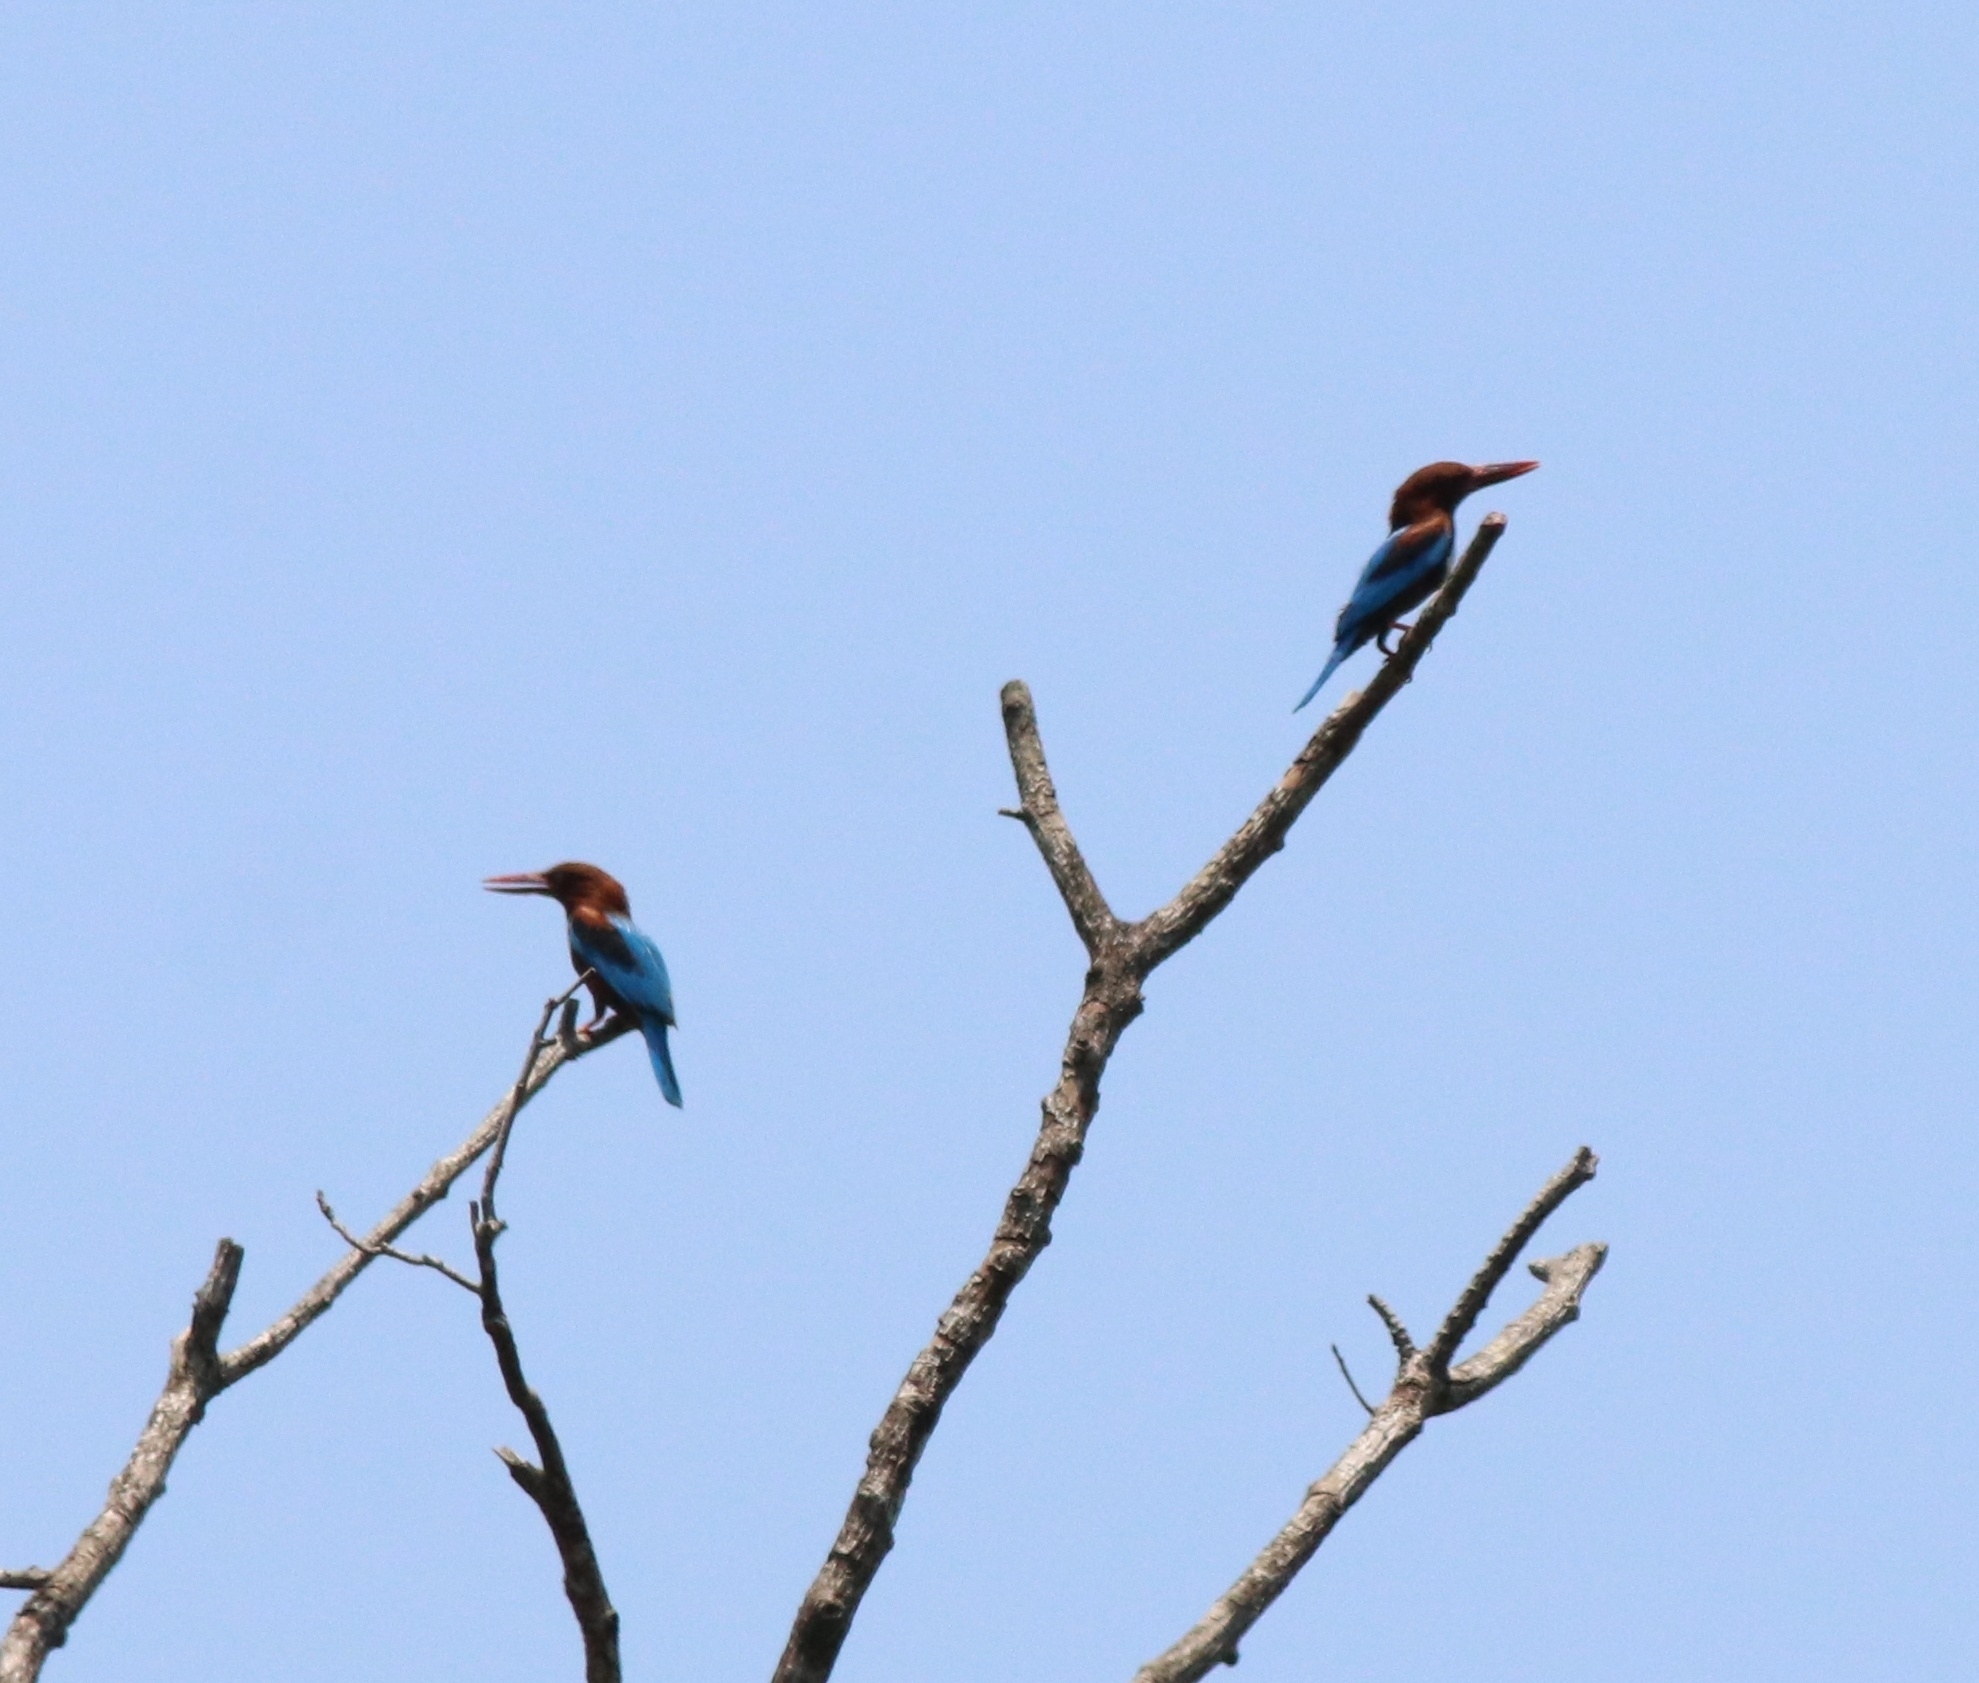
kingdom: Animalia
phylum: Chordata
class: Aves
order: Coraciiformes
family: Alcedinidae
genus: Halcyon
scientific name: Halcyon smyrnensis
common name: White-throated kingfisher
